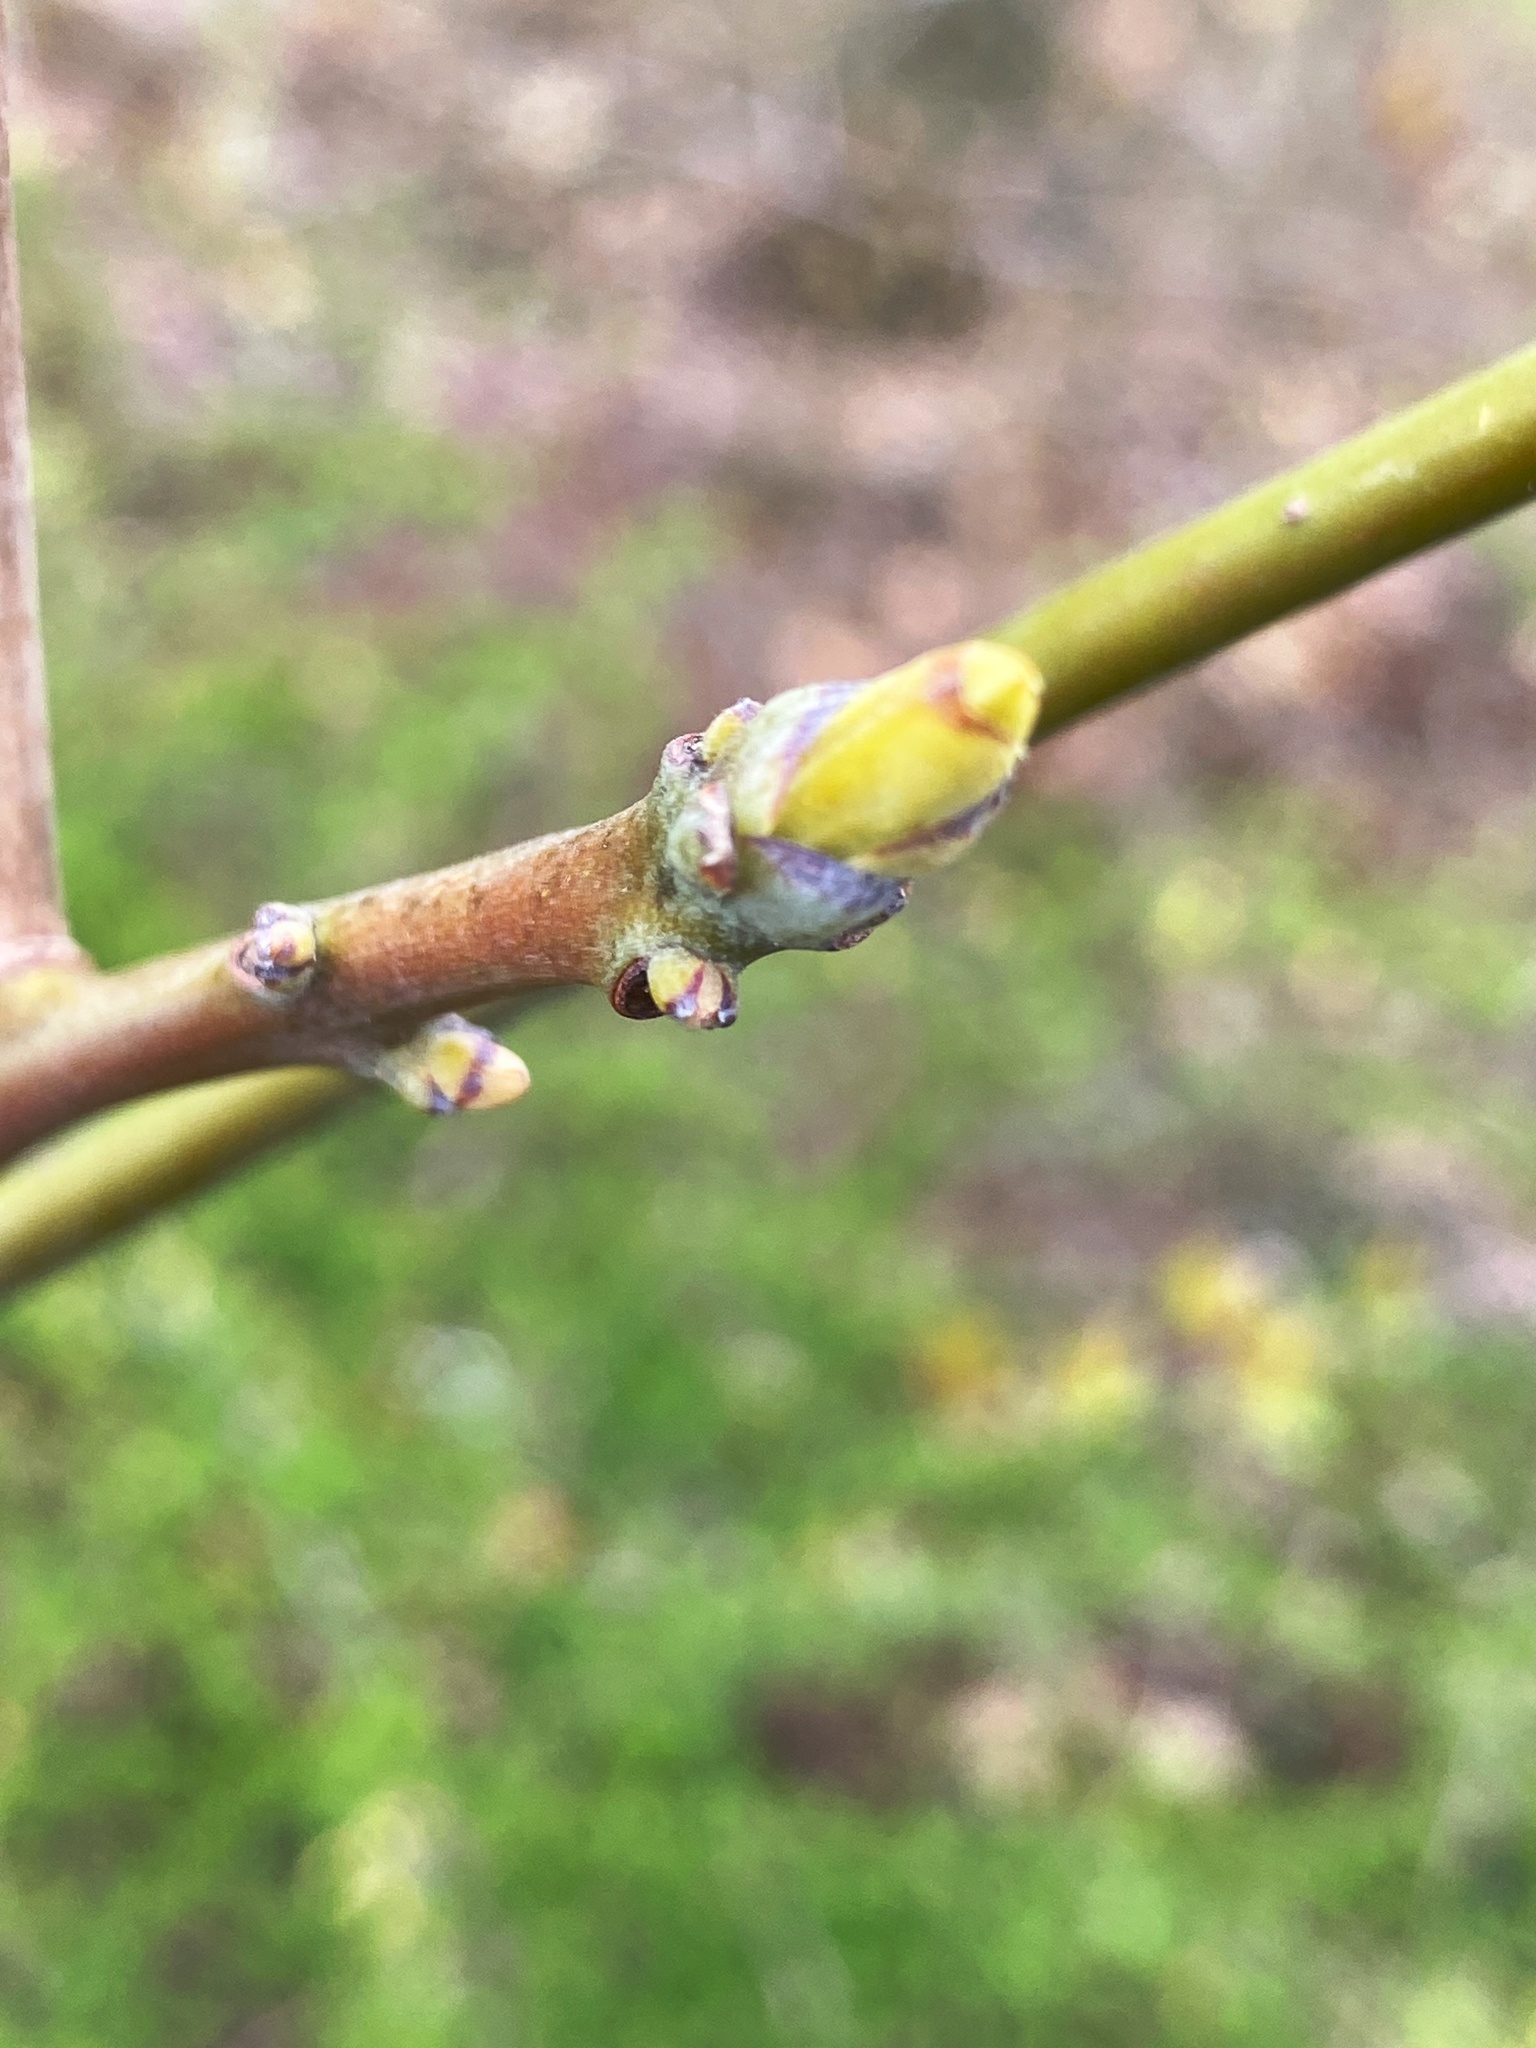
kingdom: Plantae
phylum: Tracheophyta
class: Magnoliopsida
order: Laurales
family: Lauraceae
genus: Sassafras
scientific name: Sassafras albidum
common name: Sassafras
